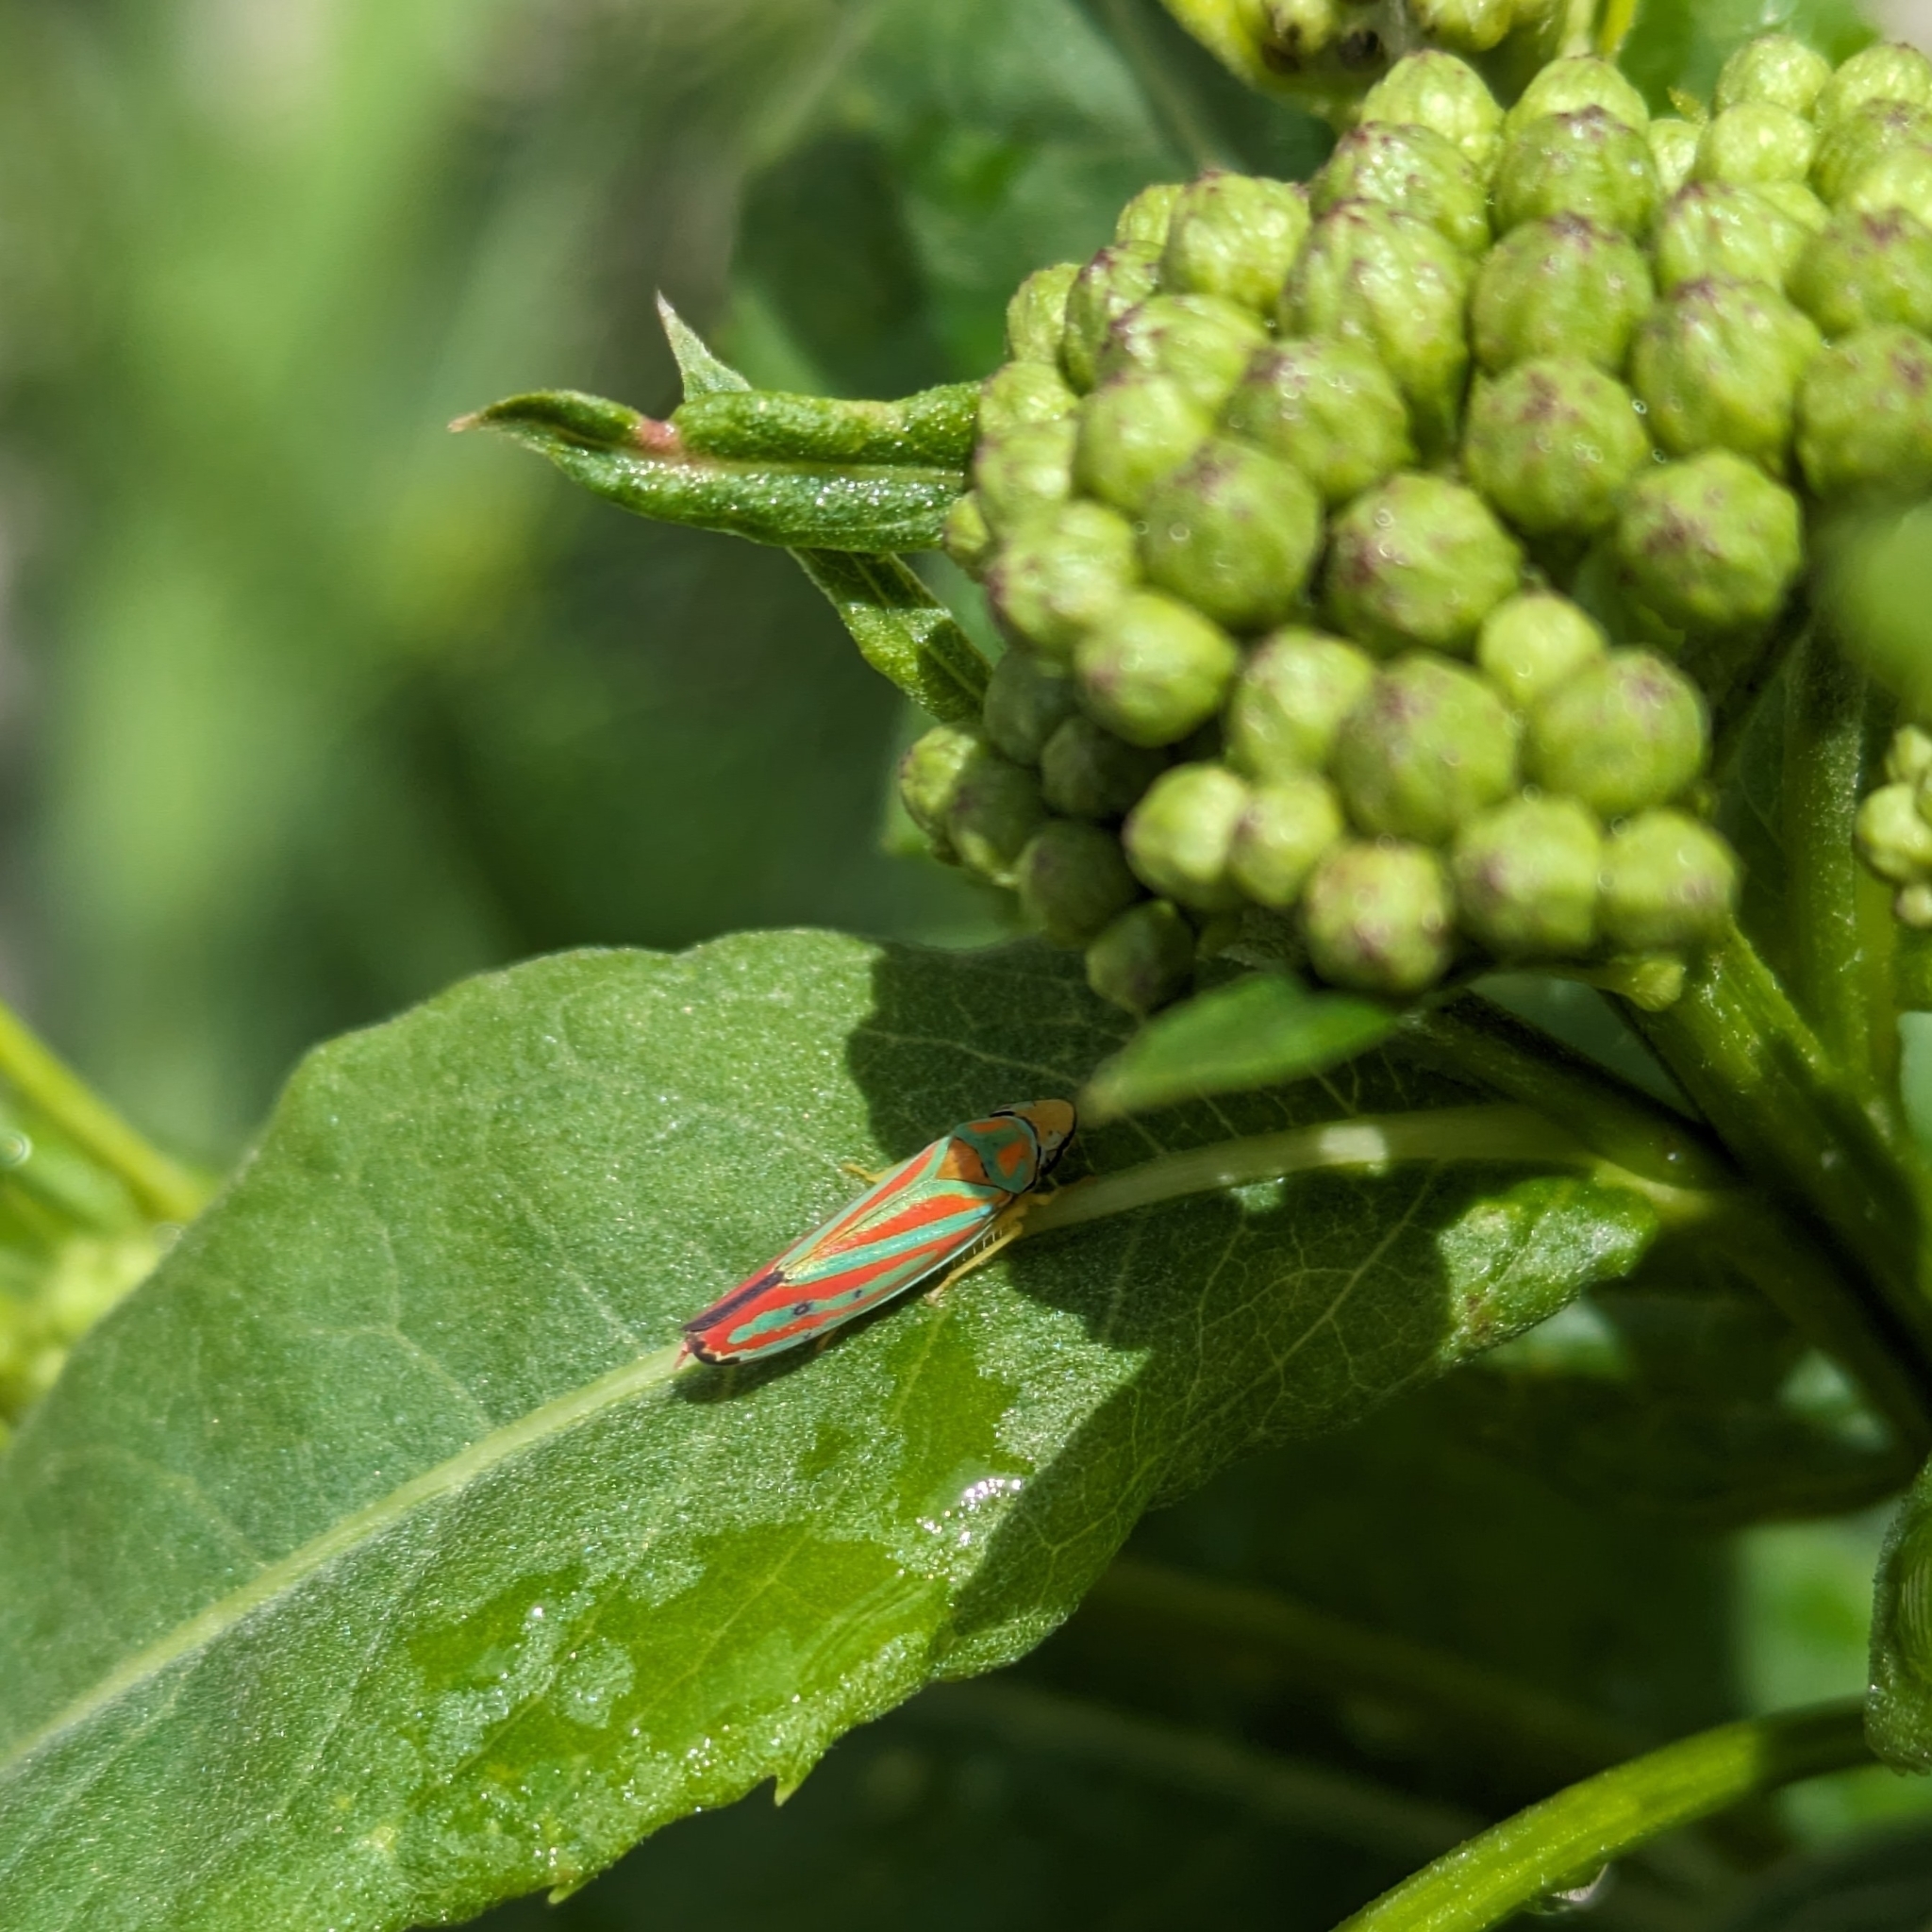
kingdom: Animalia
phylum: Arthropoda
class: Insecta
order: Hemiptera
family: Cicadellidae
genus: Graphocephala
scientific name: Graphocephala coccinea
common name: Candy-striped leafhopper
